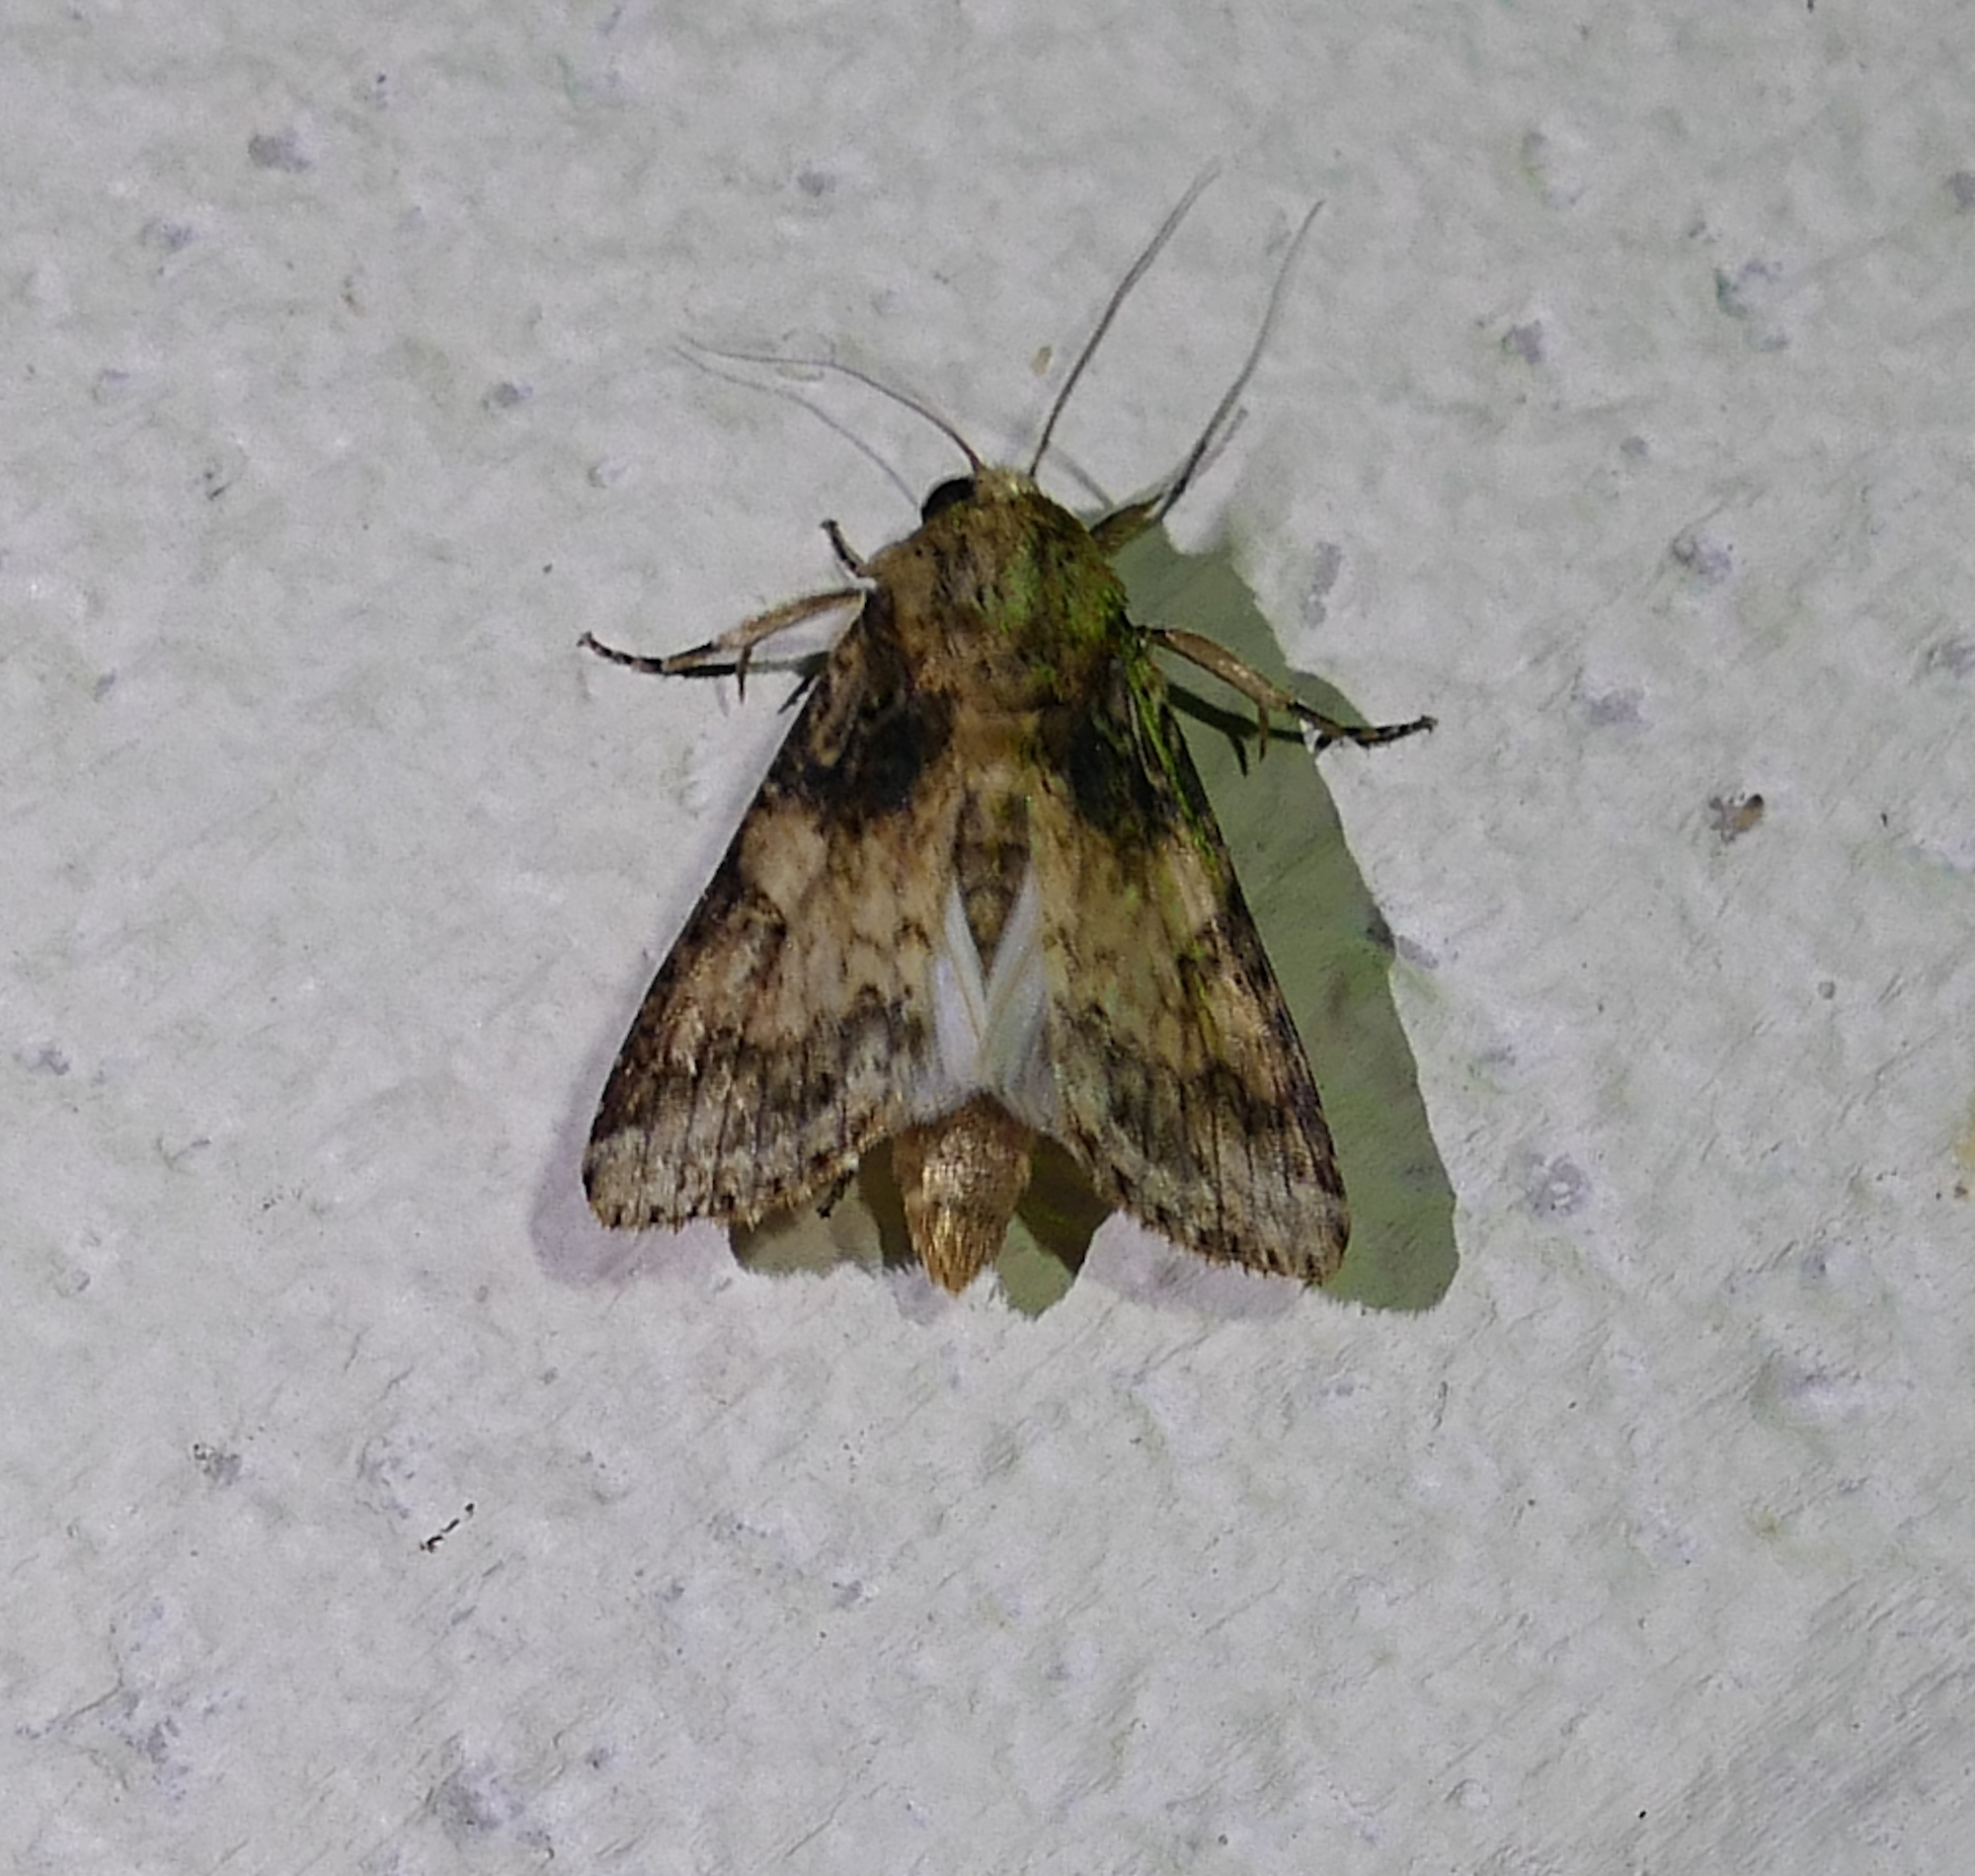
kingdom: Animalia
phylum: Arthropoda
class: Insecta
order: Lepidoptera
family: Noctuidae
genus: Spodoptera
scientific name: Spodoptera latifascia
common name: Velvet armyworm moth
